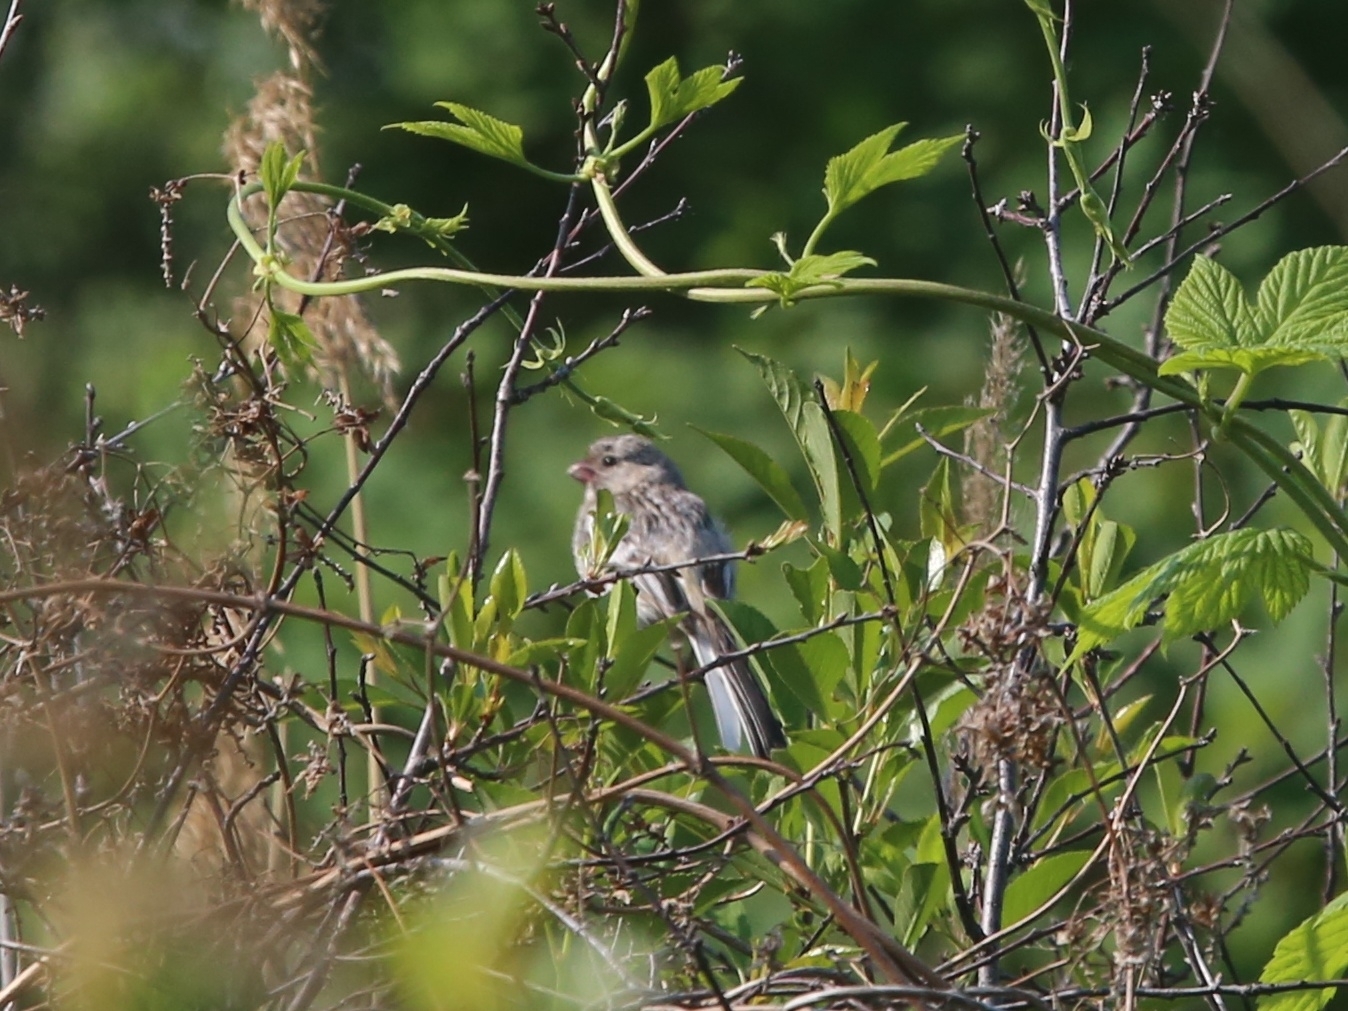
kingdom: Animalia
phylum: Chordata
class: Aves
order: Passeriformes
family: Fringillidae
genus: Carpodacus
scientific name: Carpodacus sibiricus
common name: Long-tailed rosefinch
